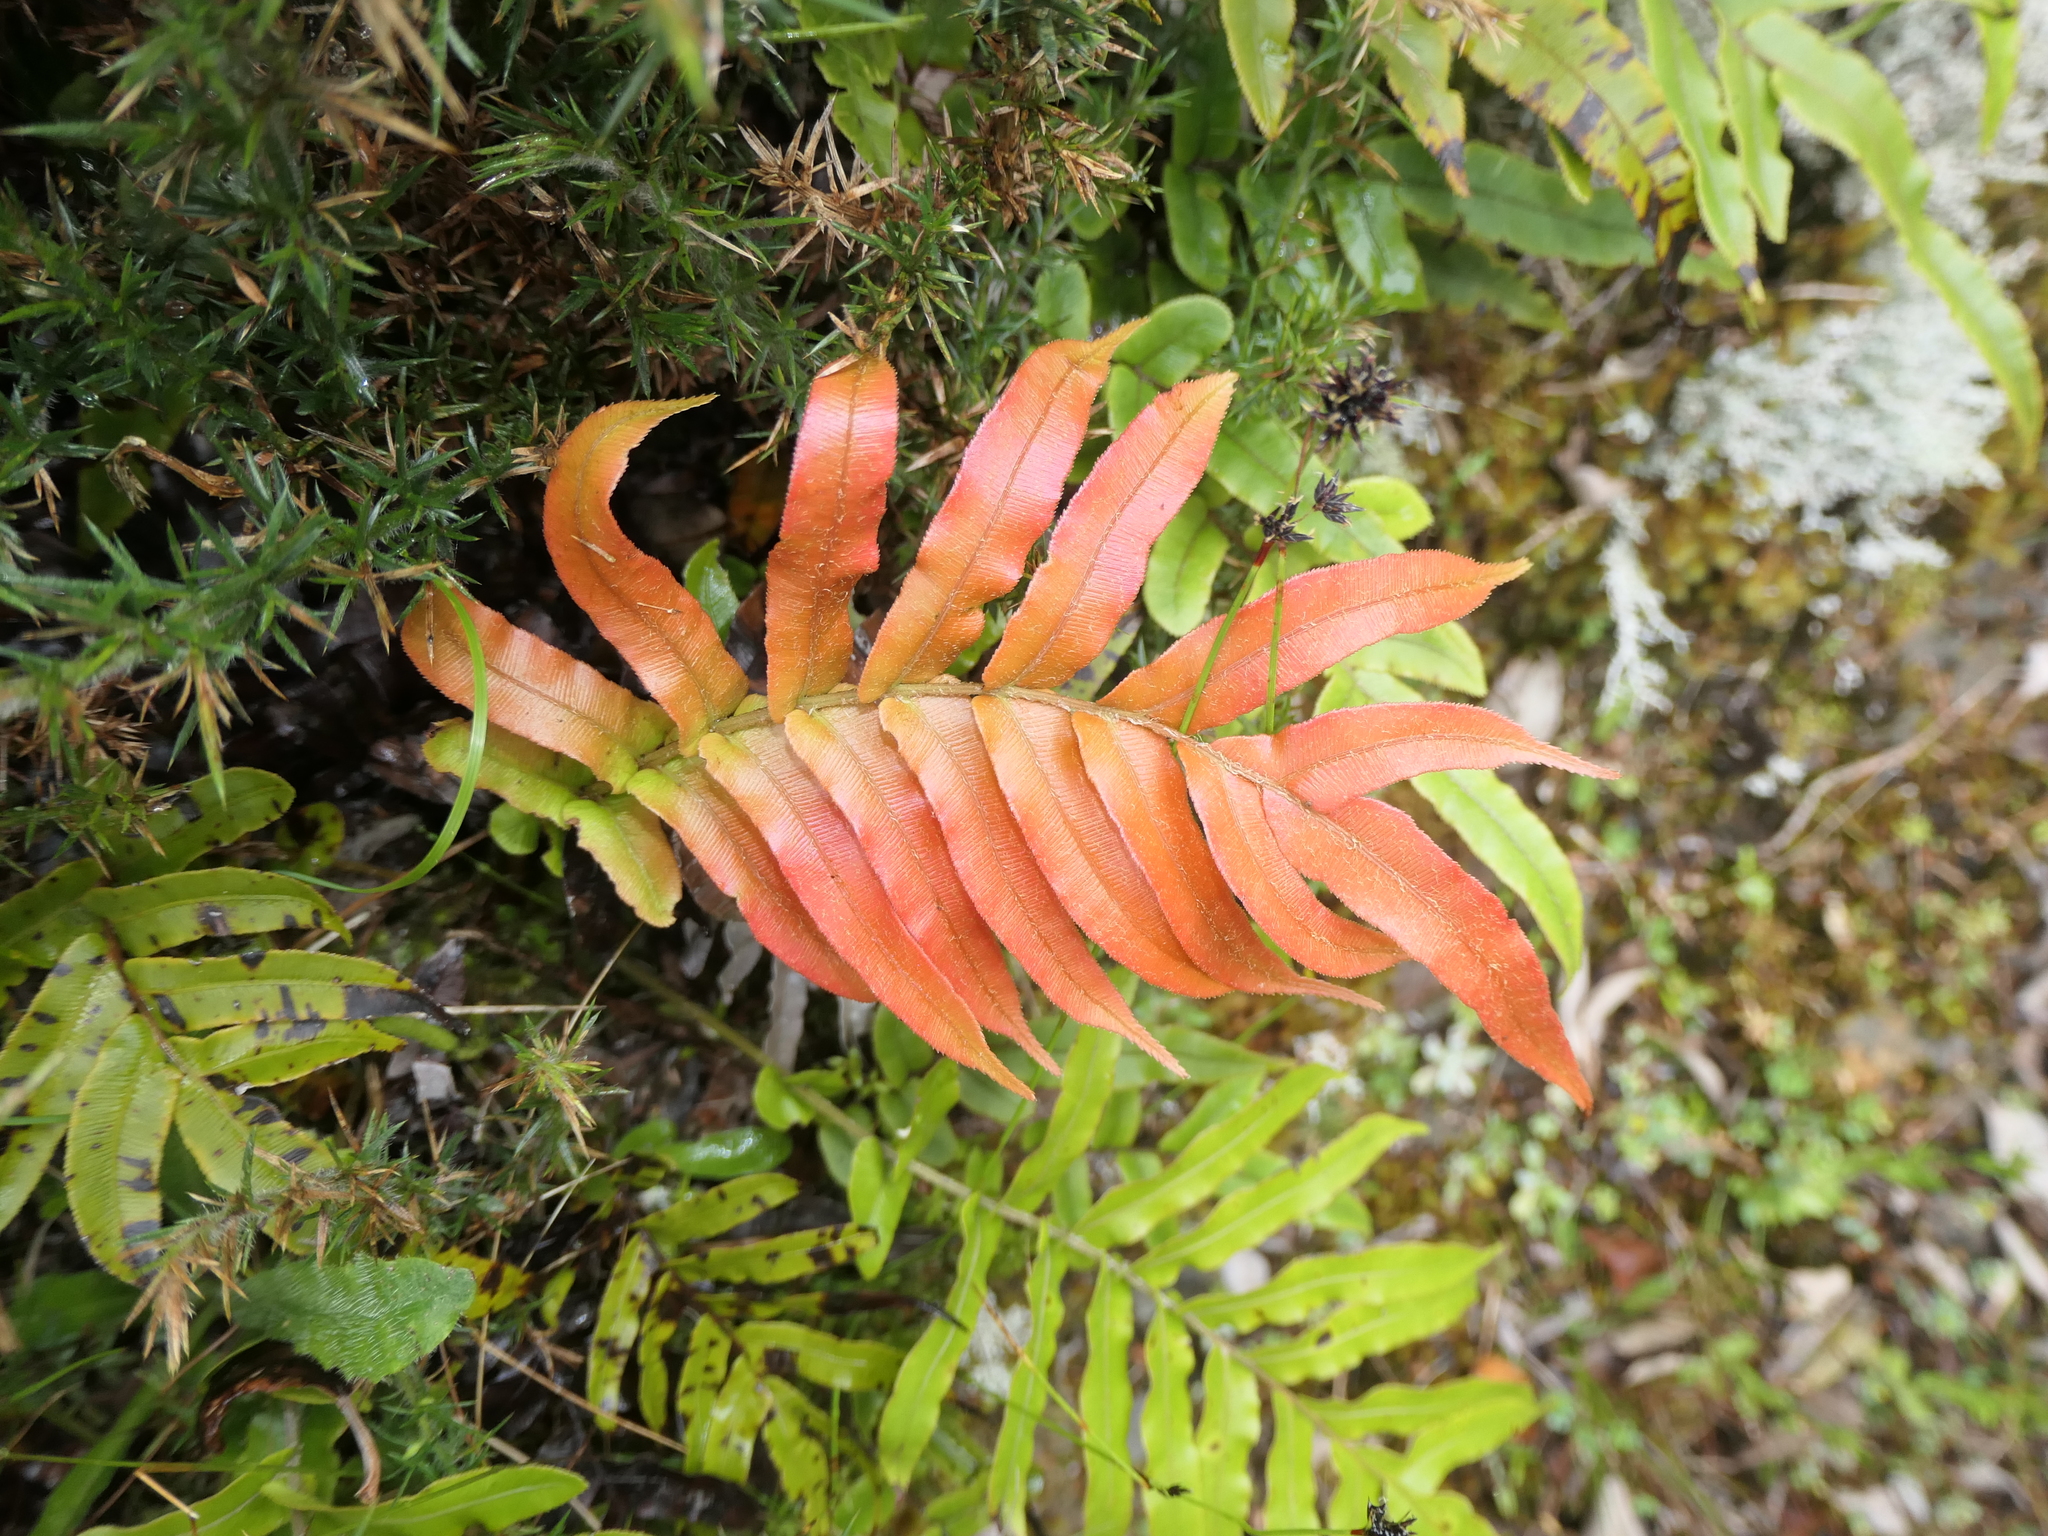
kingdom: Plantae
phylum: Tracheophyta
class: Polypodiopsida
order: Polypodiales
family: Blechnaceae
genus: Parablechnum
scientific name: Parablechnum montanum
